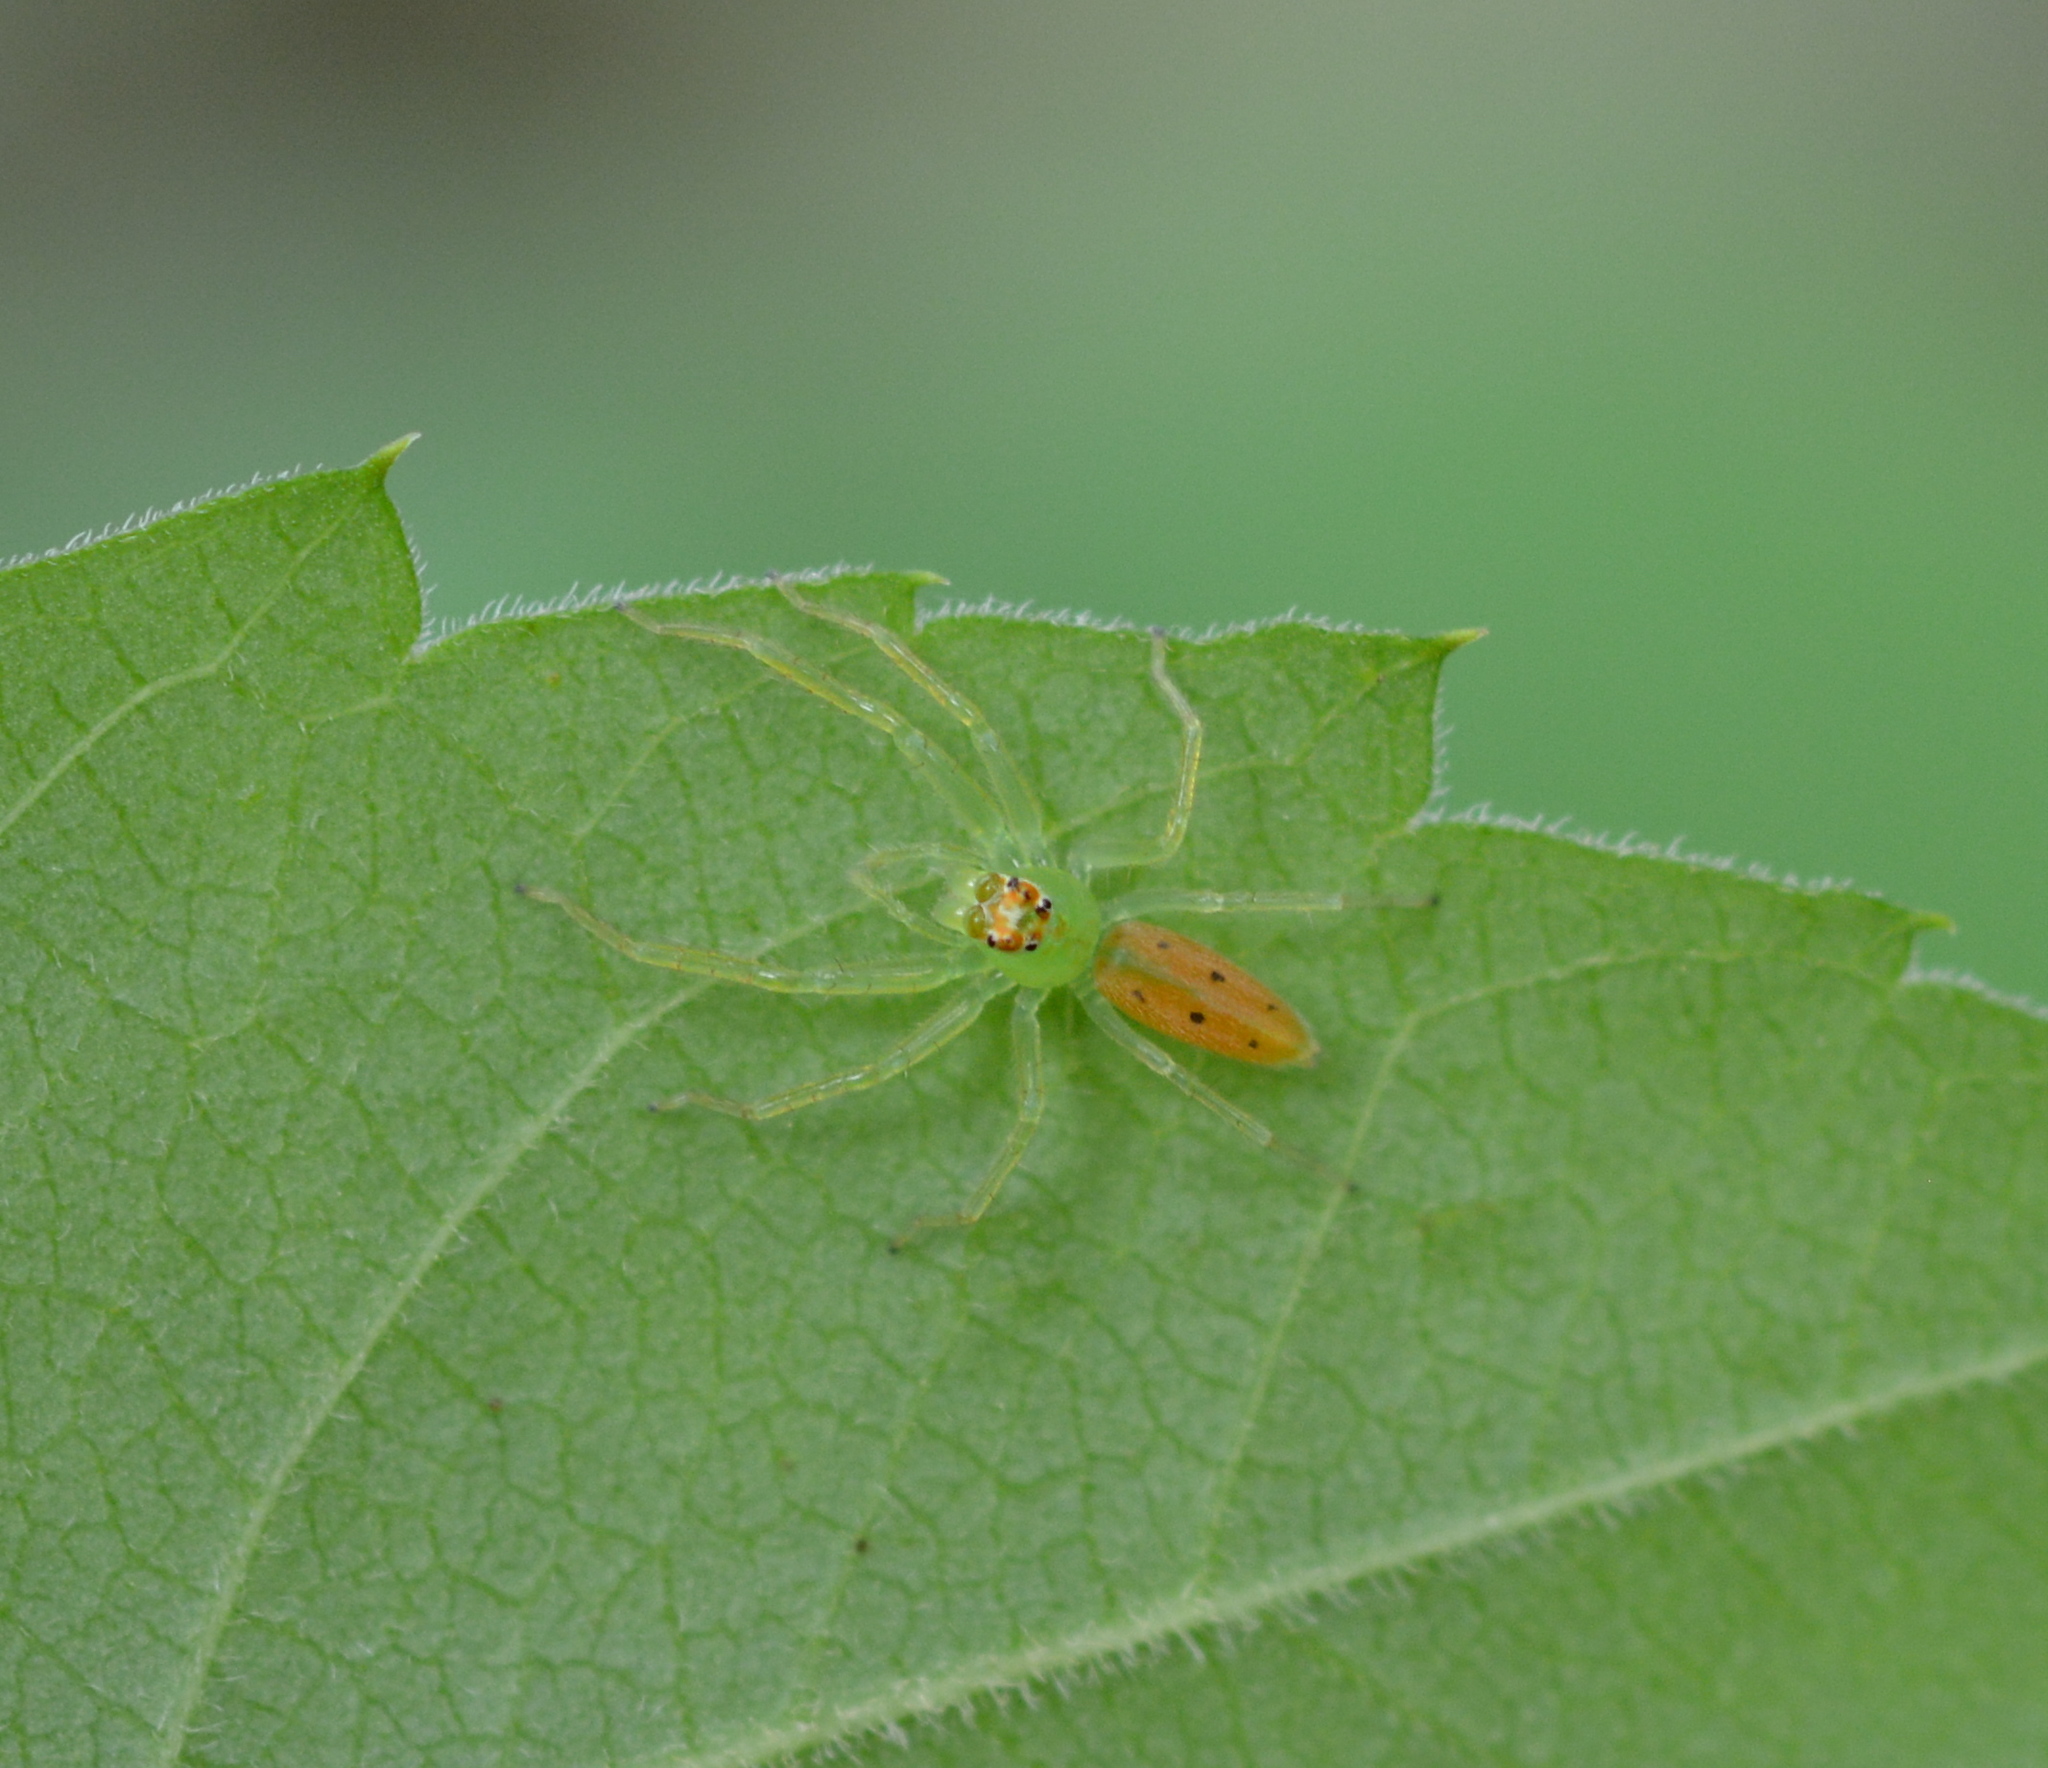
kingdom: Animalia
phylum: Arthropoda
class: Arachnida
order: Araneae
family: Salticidae
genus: Lyssomanes
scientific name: Lyssomanes viridis
